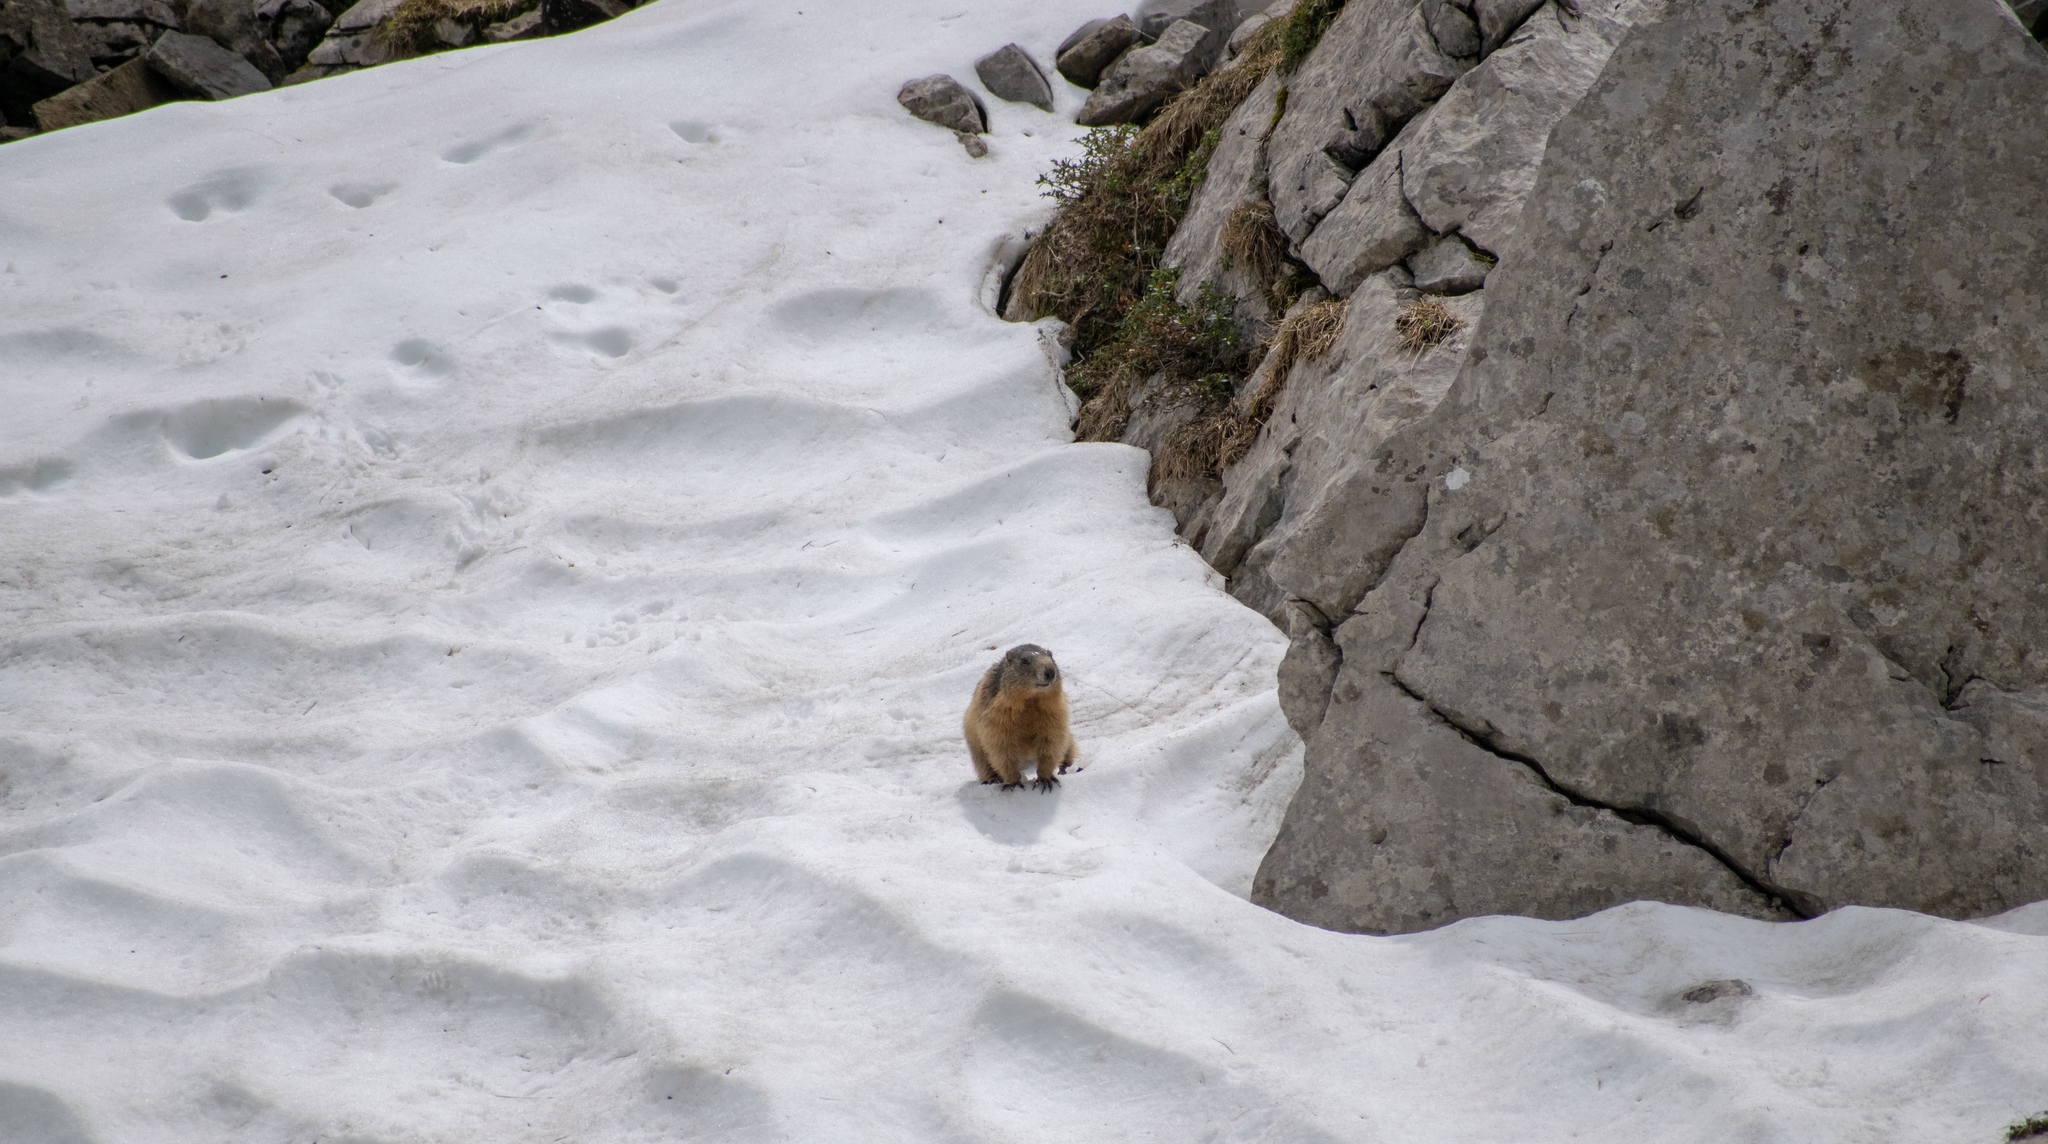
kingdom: Animalia
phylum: Chordata
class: Mammalia
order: Rodentia
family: Sciuridae
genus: Marmota
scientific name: Marmota marmota
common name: Alpine marmot
